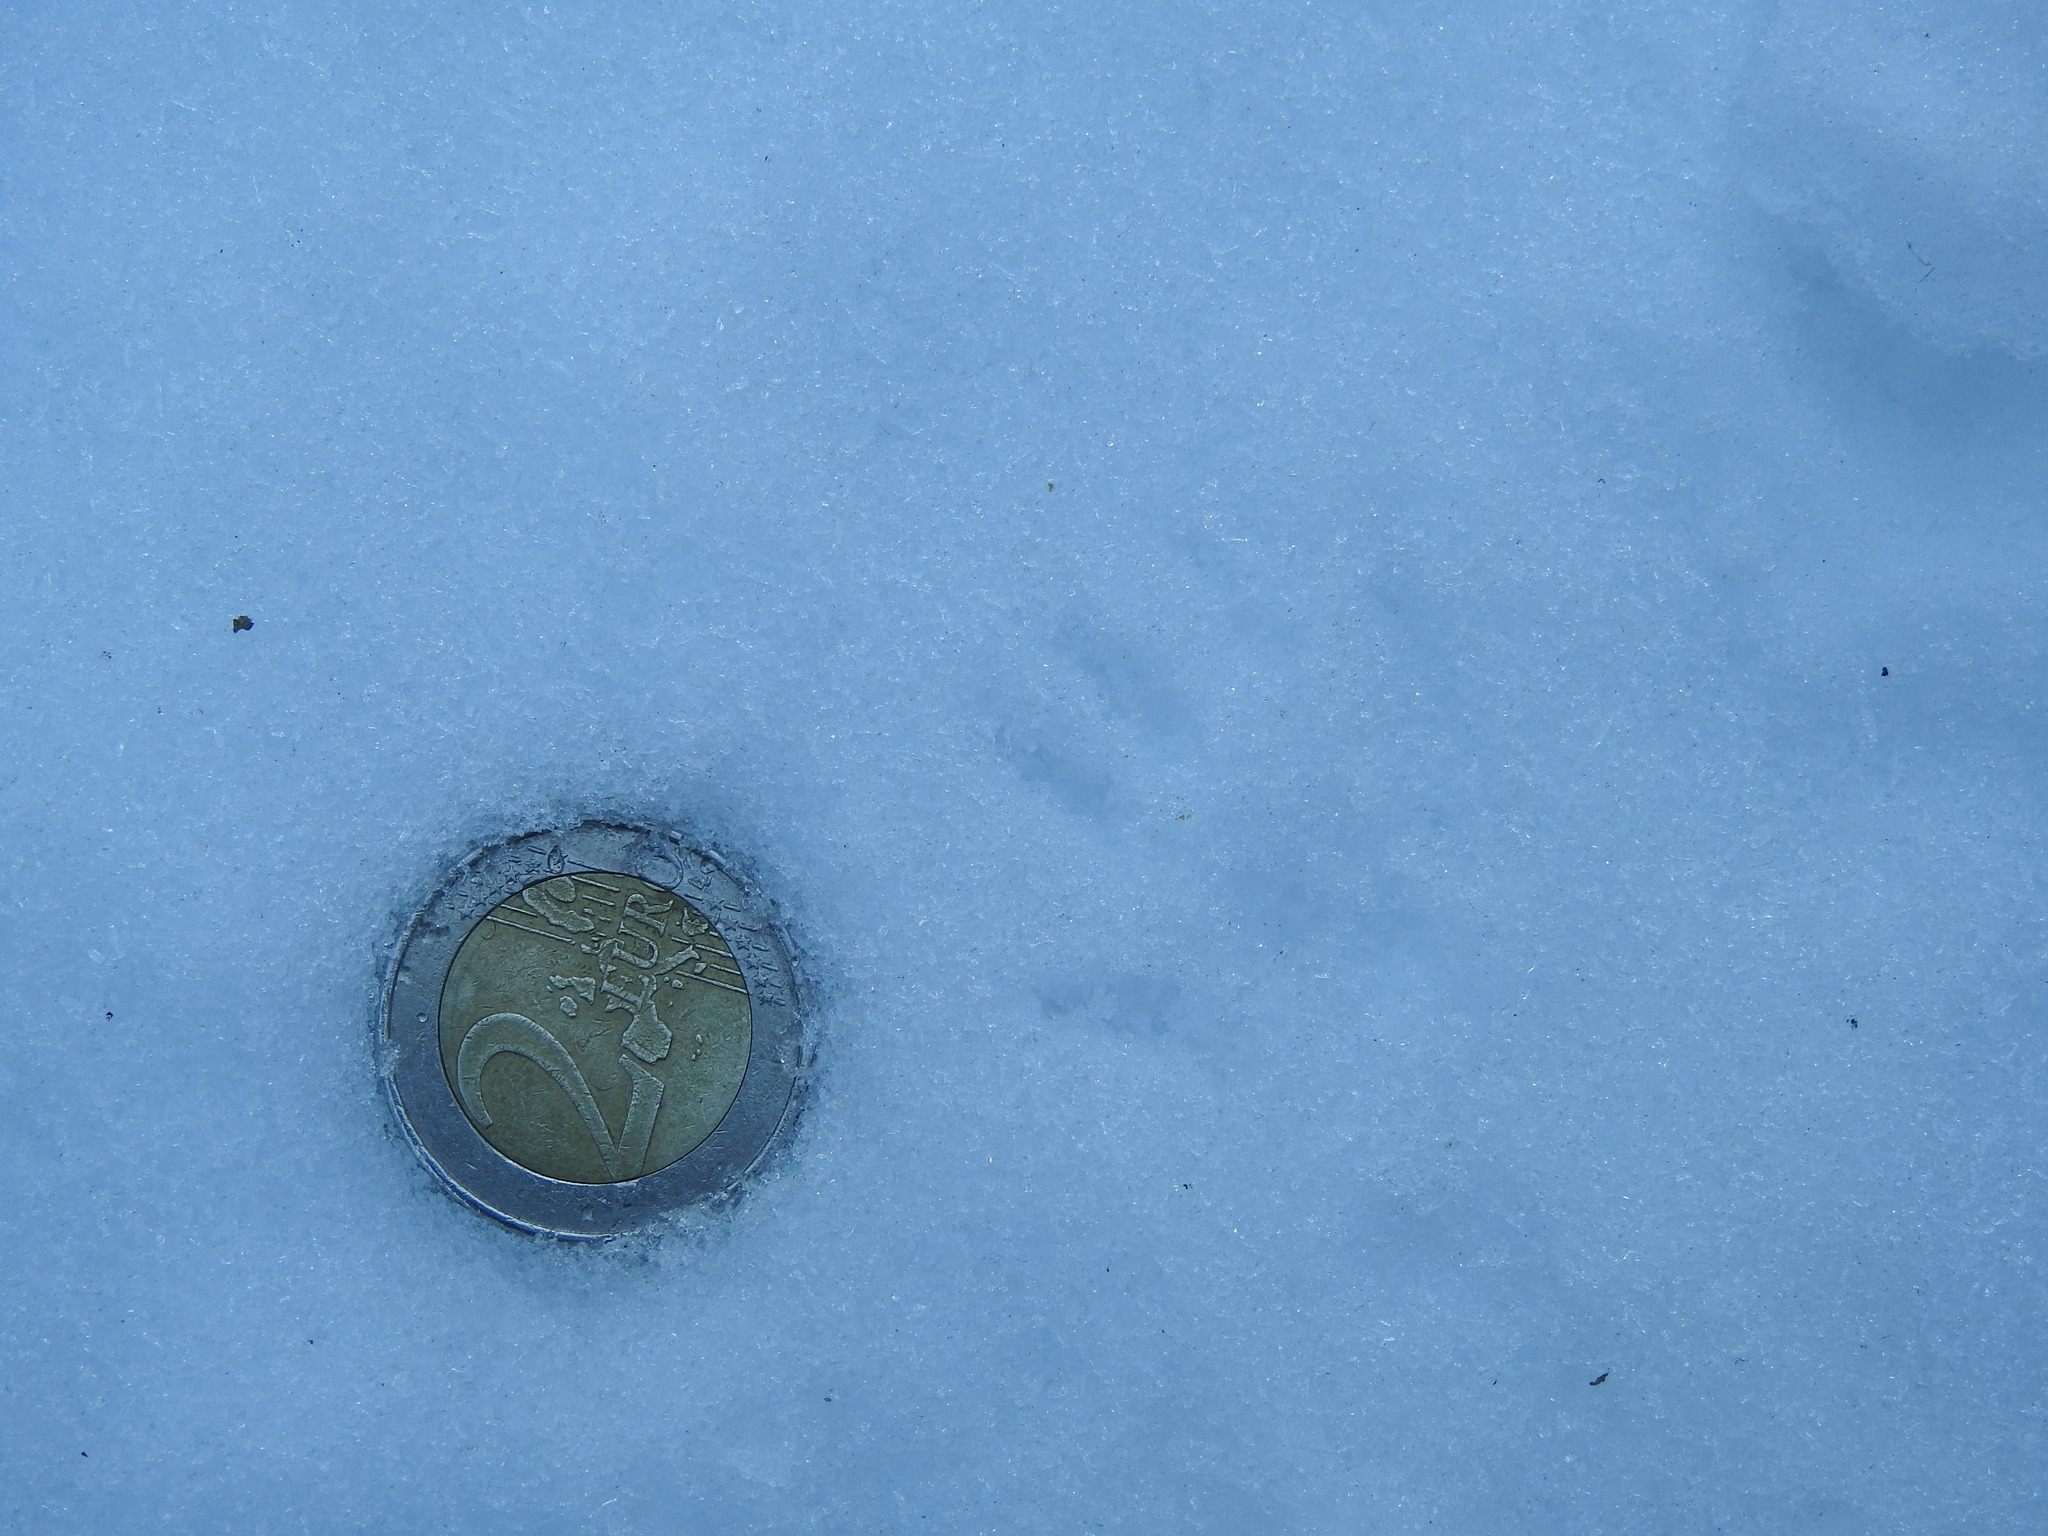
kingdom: Animalia
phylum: Chordata
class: Mammalia
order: Rodentia
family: Sciuridae
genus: Sciurus
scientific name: Sciurus vulgaris
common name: Eurasian red squirrel
